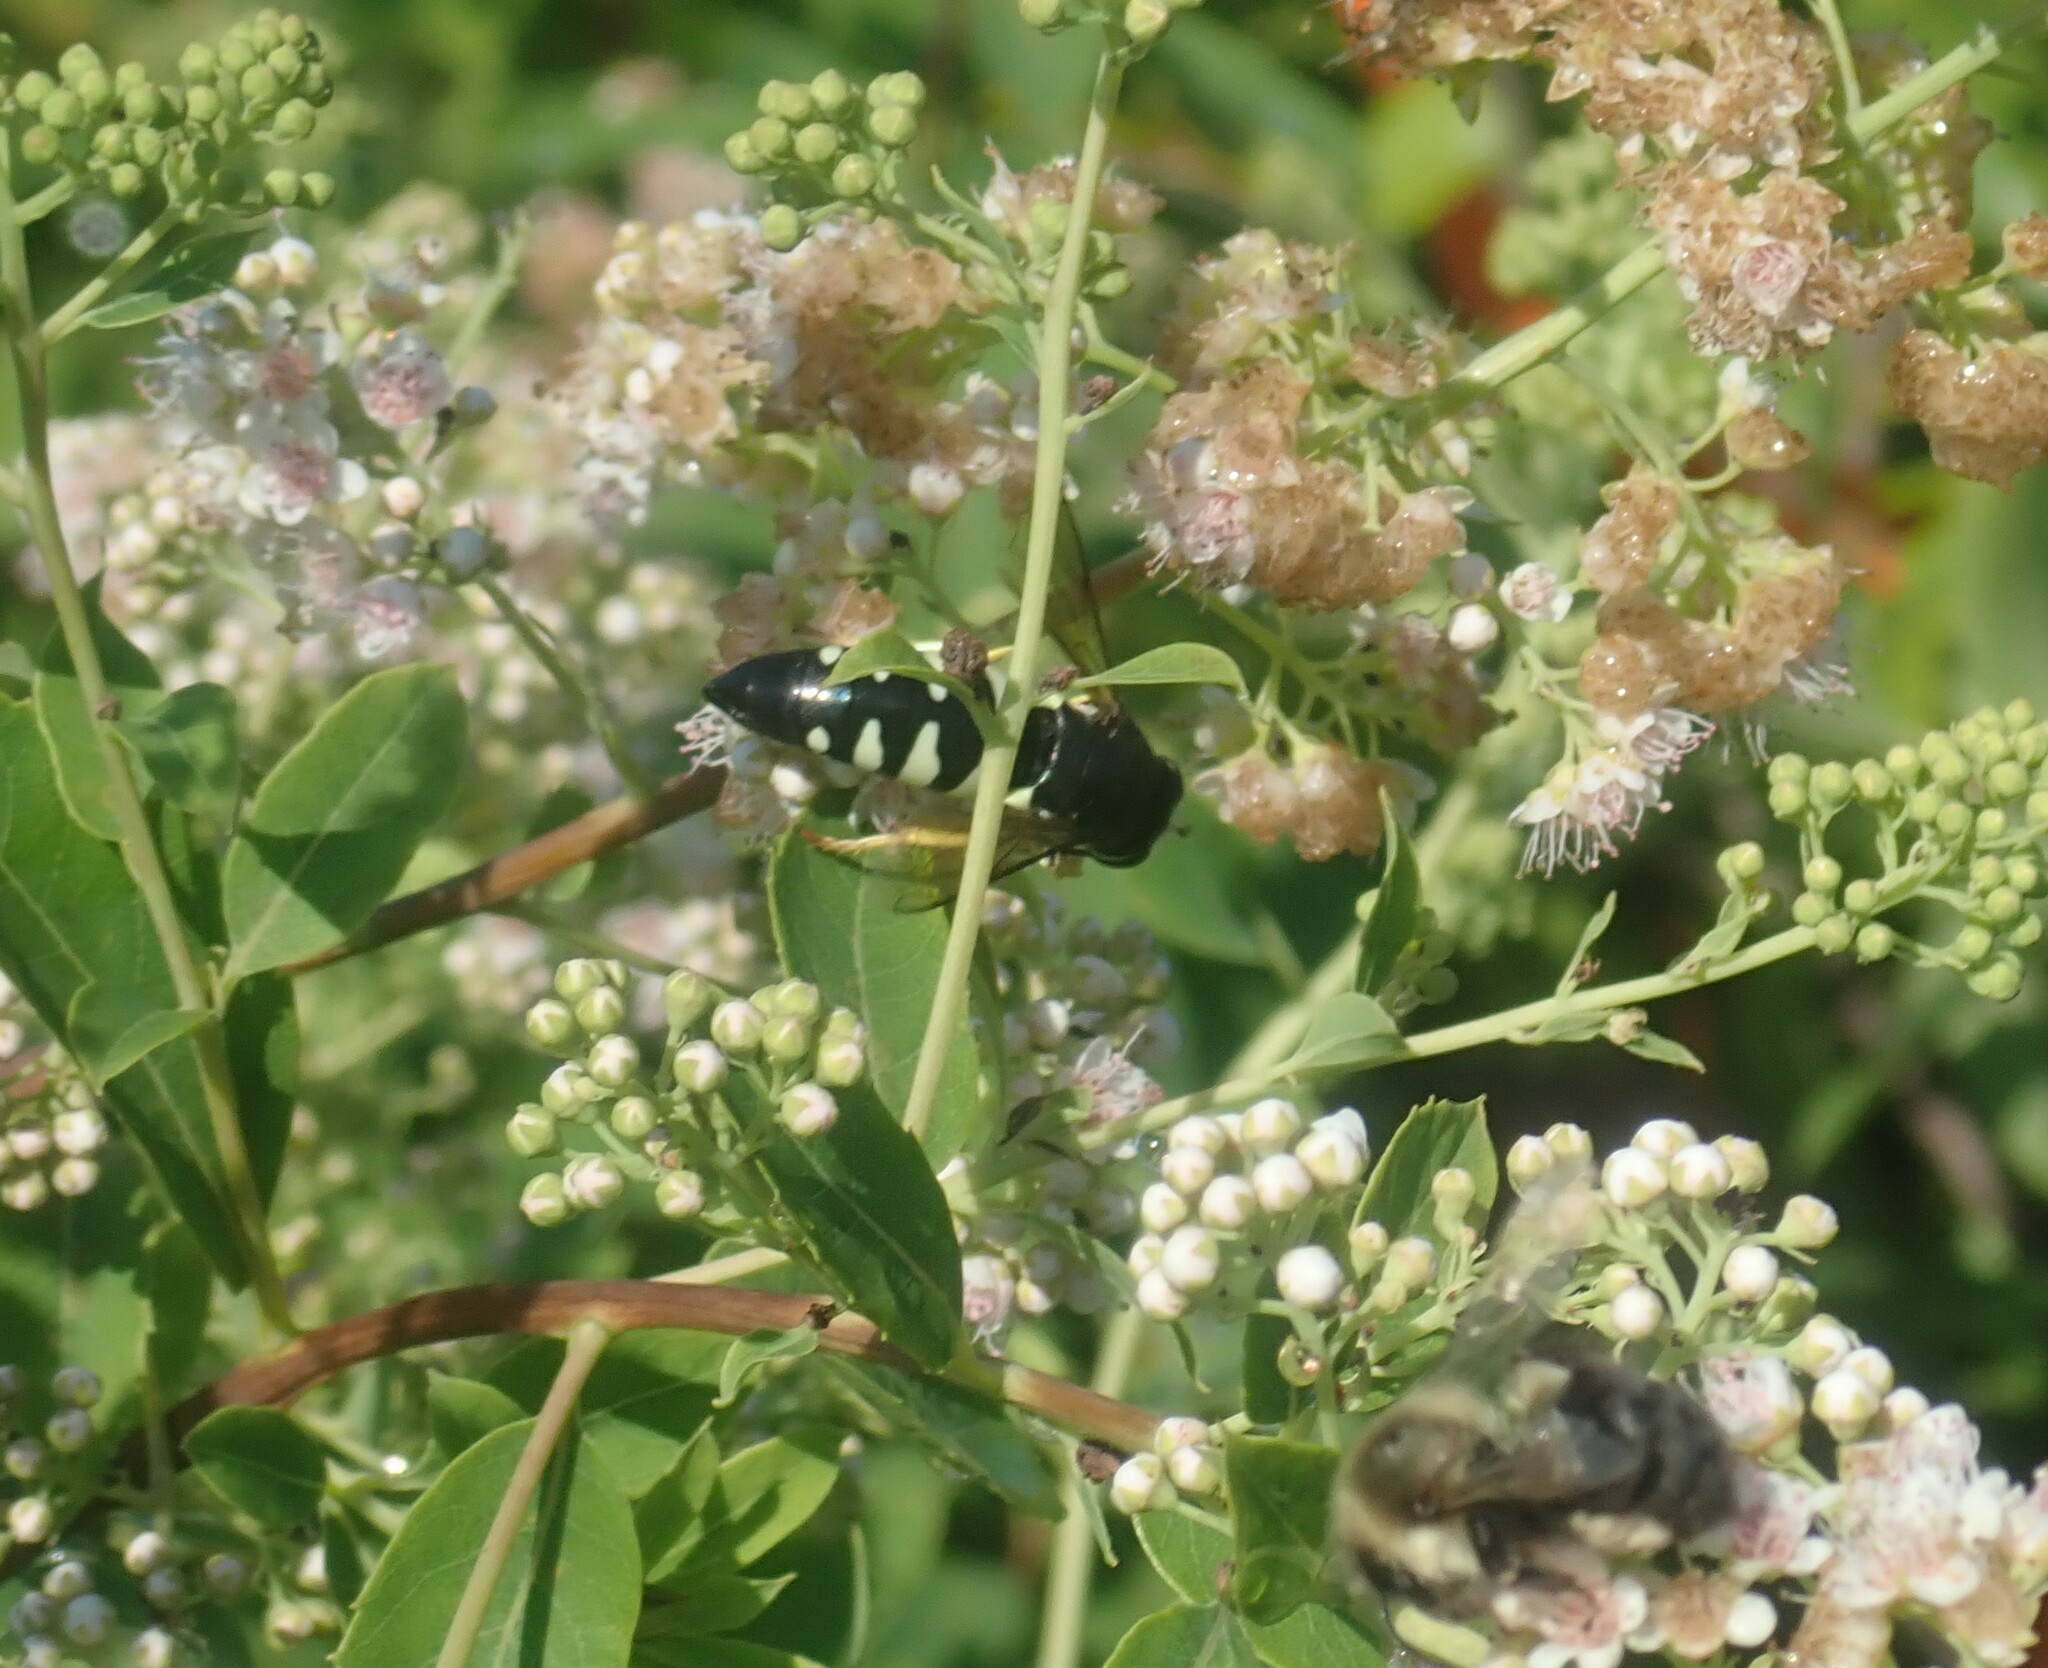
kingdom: Animalia
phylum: Arthropoda
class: Insecta
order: Hymenoptera
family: Crabronidae
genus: Bicyrtes
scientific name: Bicyrtes quadrifasciatus
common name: Four-banded stink bug hunter wasp
